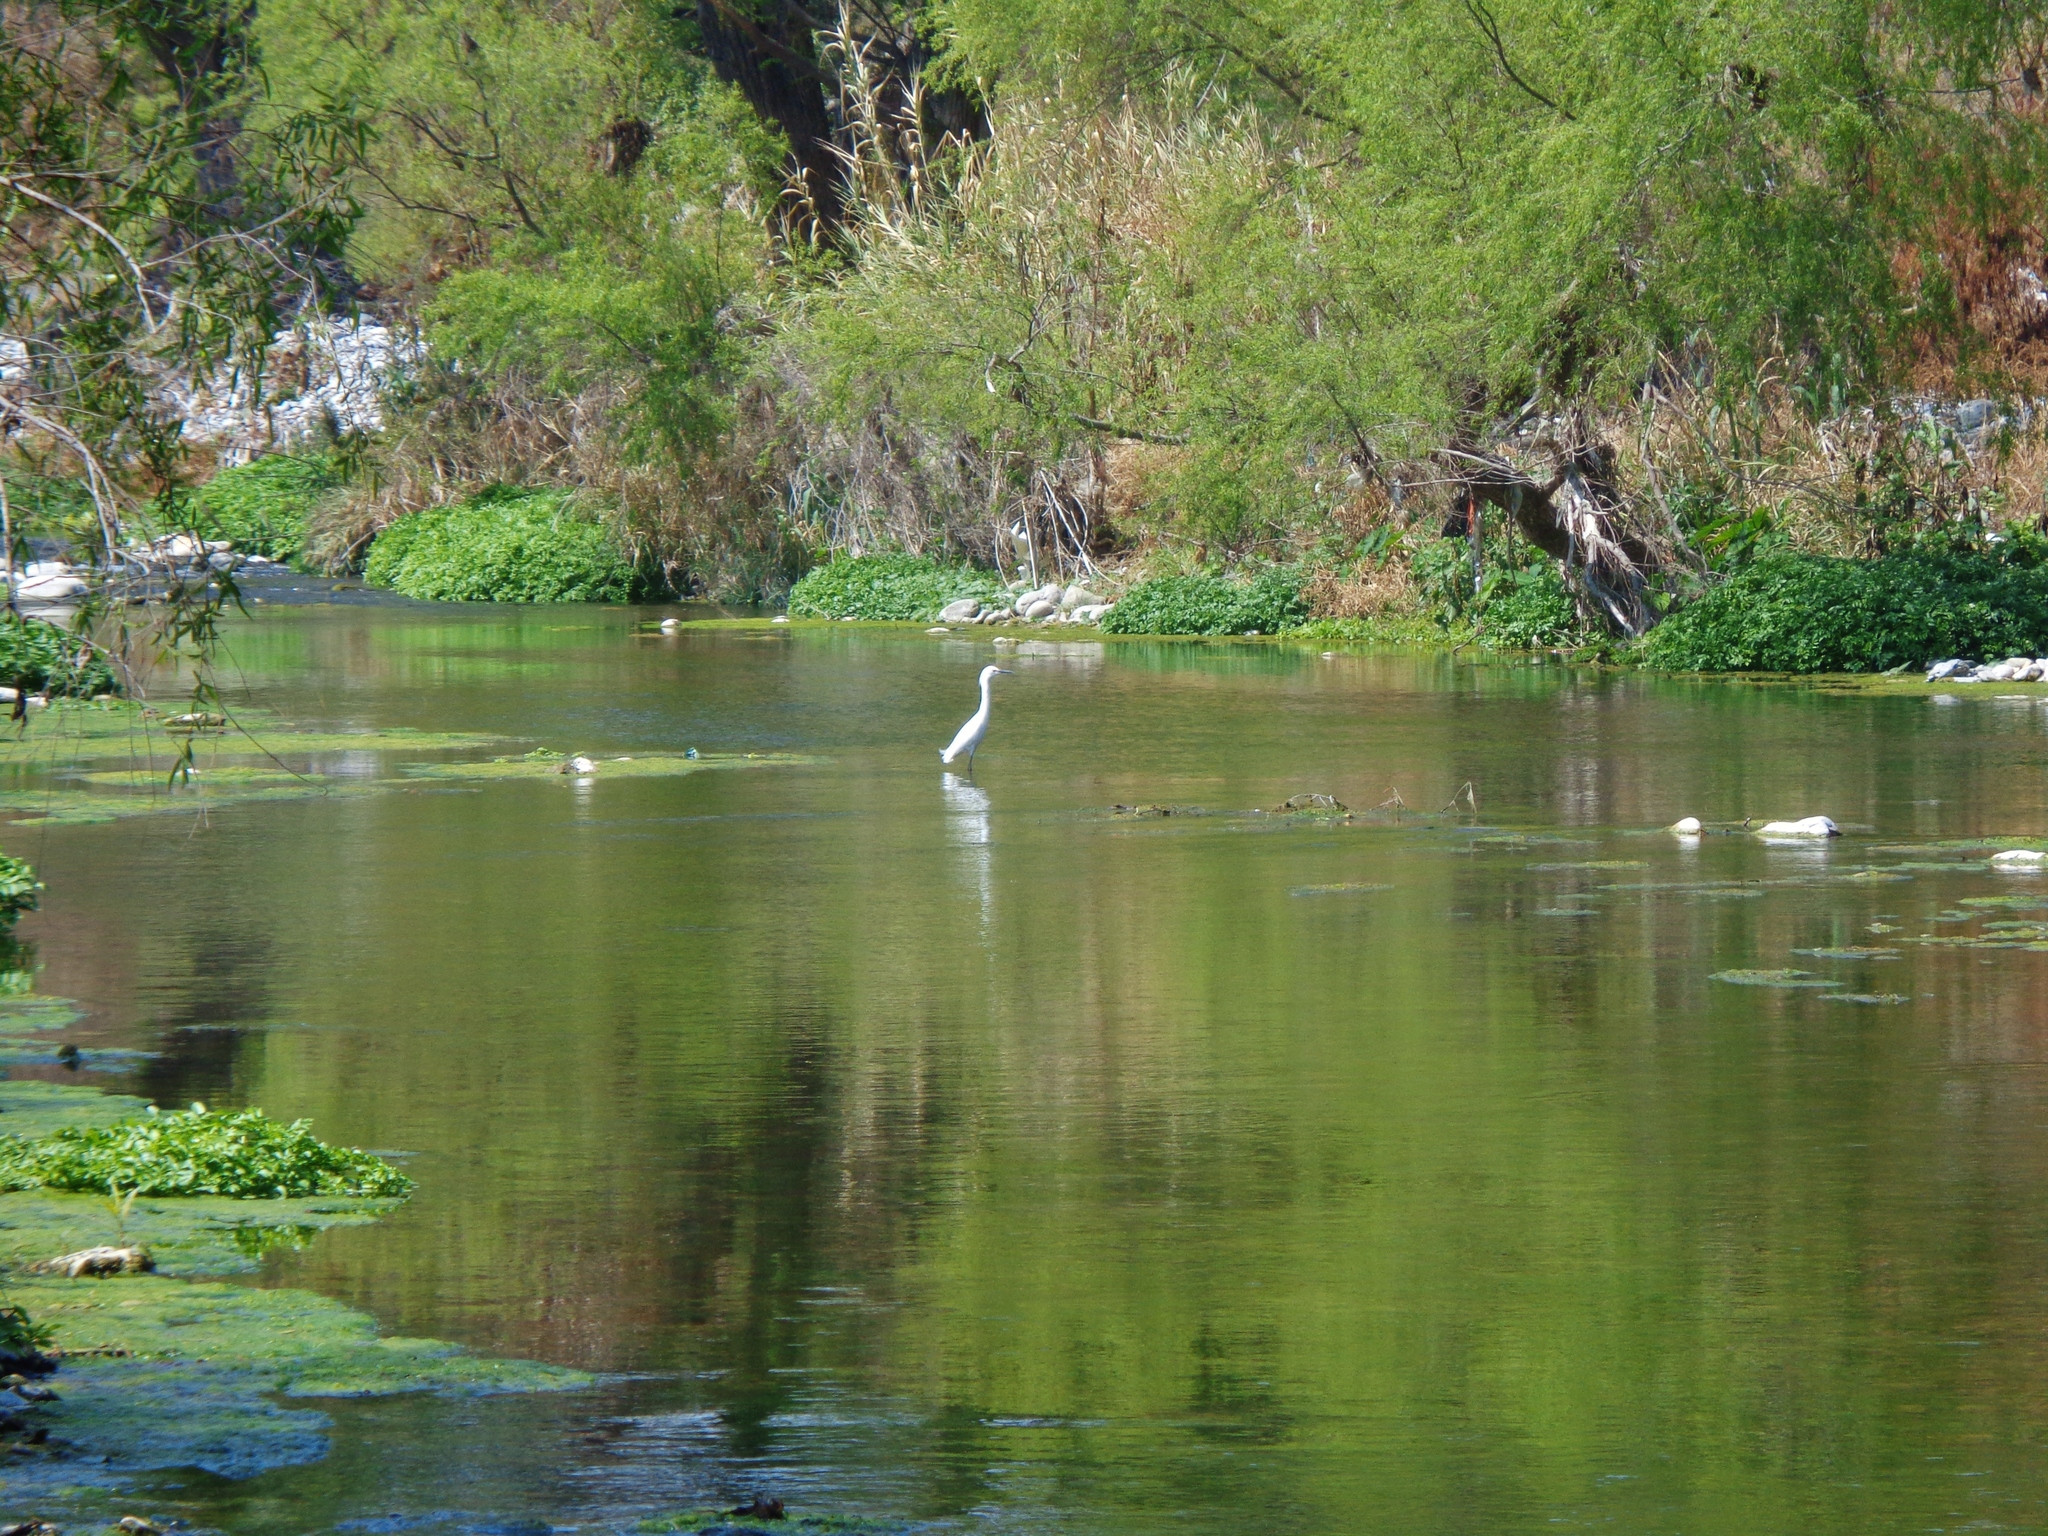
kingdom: Animalia
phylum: Chordata
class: Aves
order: Pelecaniformes
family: Ardeidae
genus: Egretta
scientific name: Egretta thula
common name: Snowy egret
